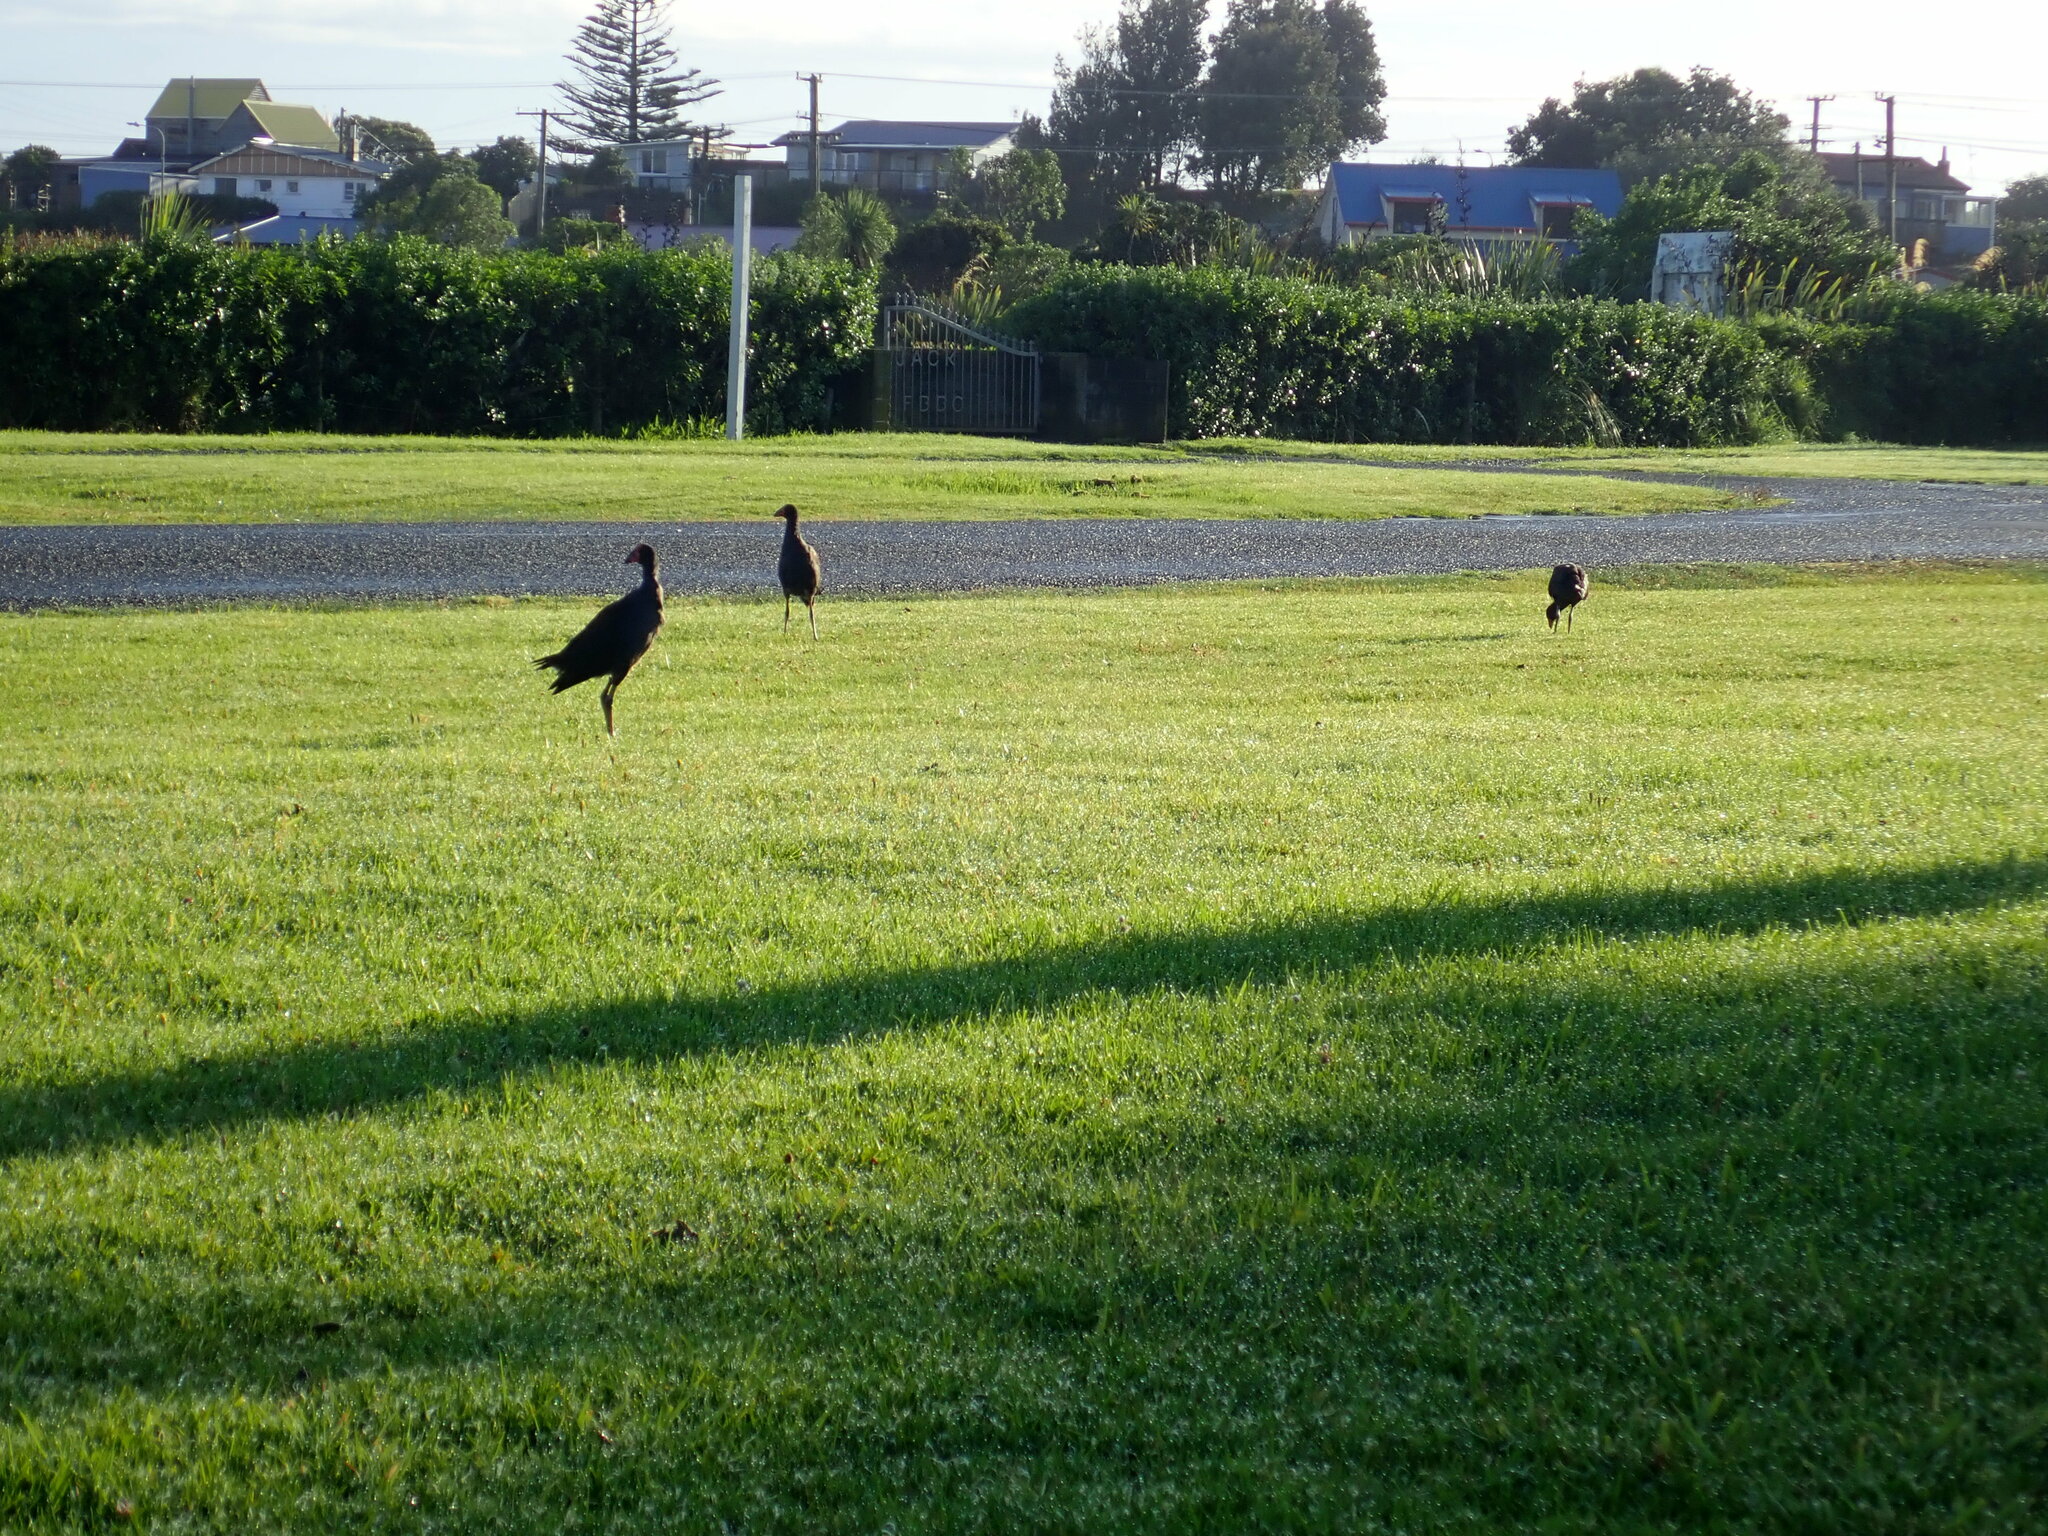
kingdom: Animalia
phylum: Chordata
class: Aves
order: Gruiformes
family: Rallidae
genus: Porphyrio
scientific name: Porphyrio melanotus
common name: Australasian swamphen
